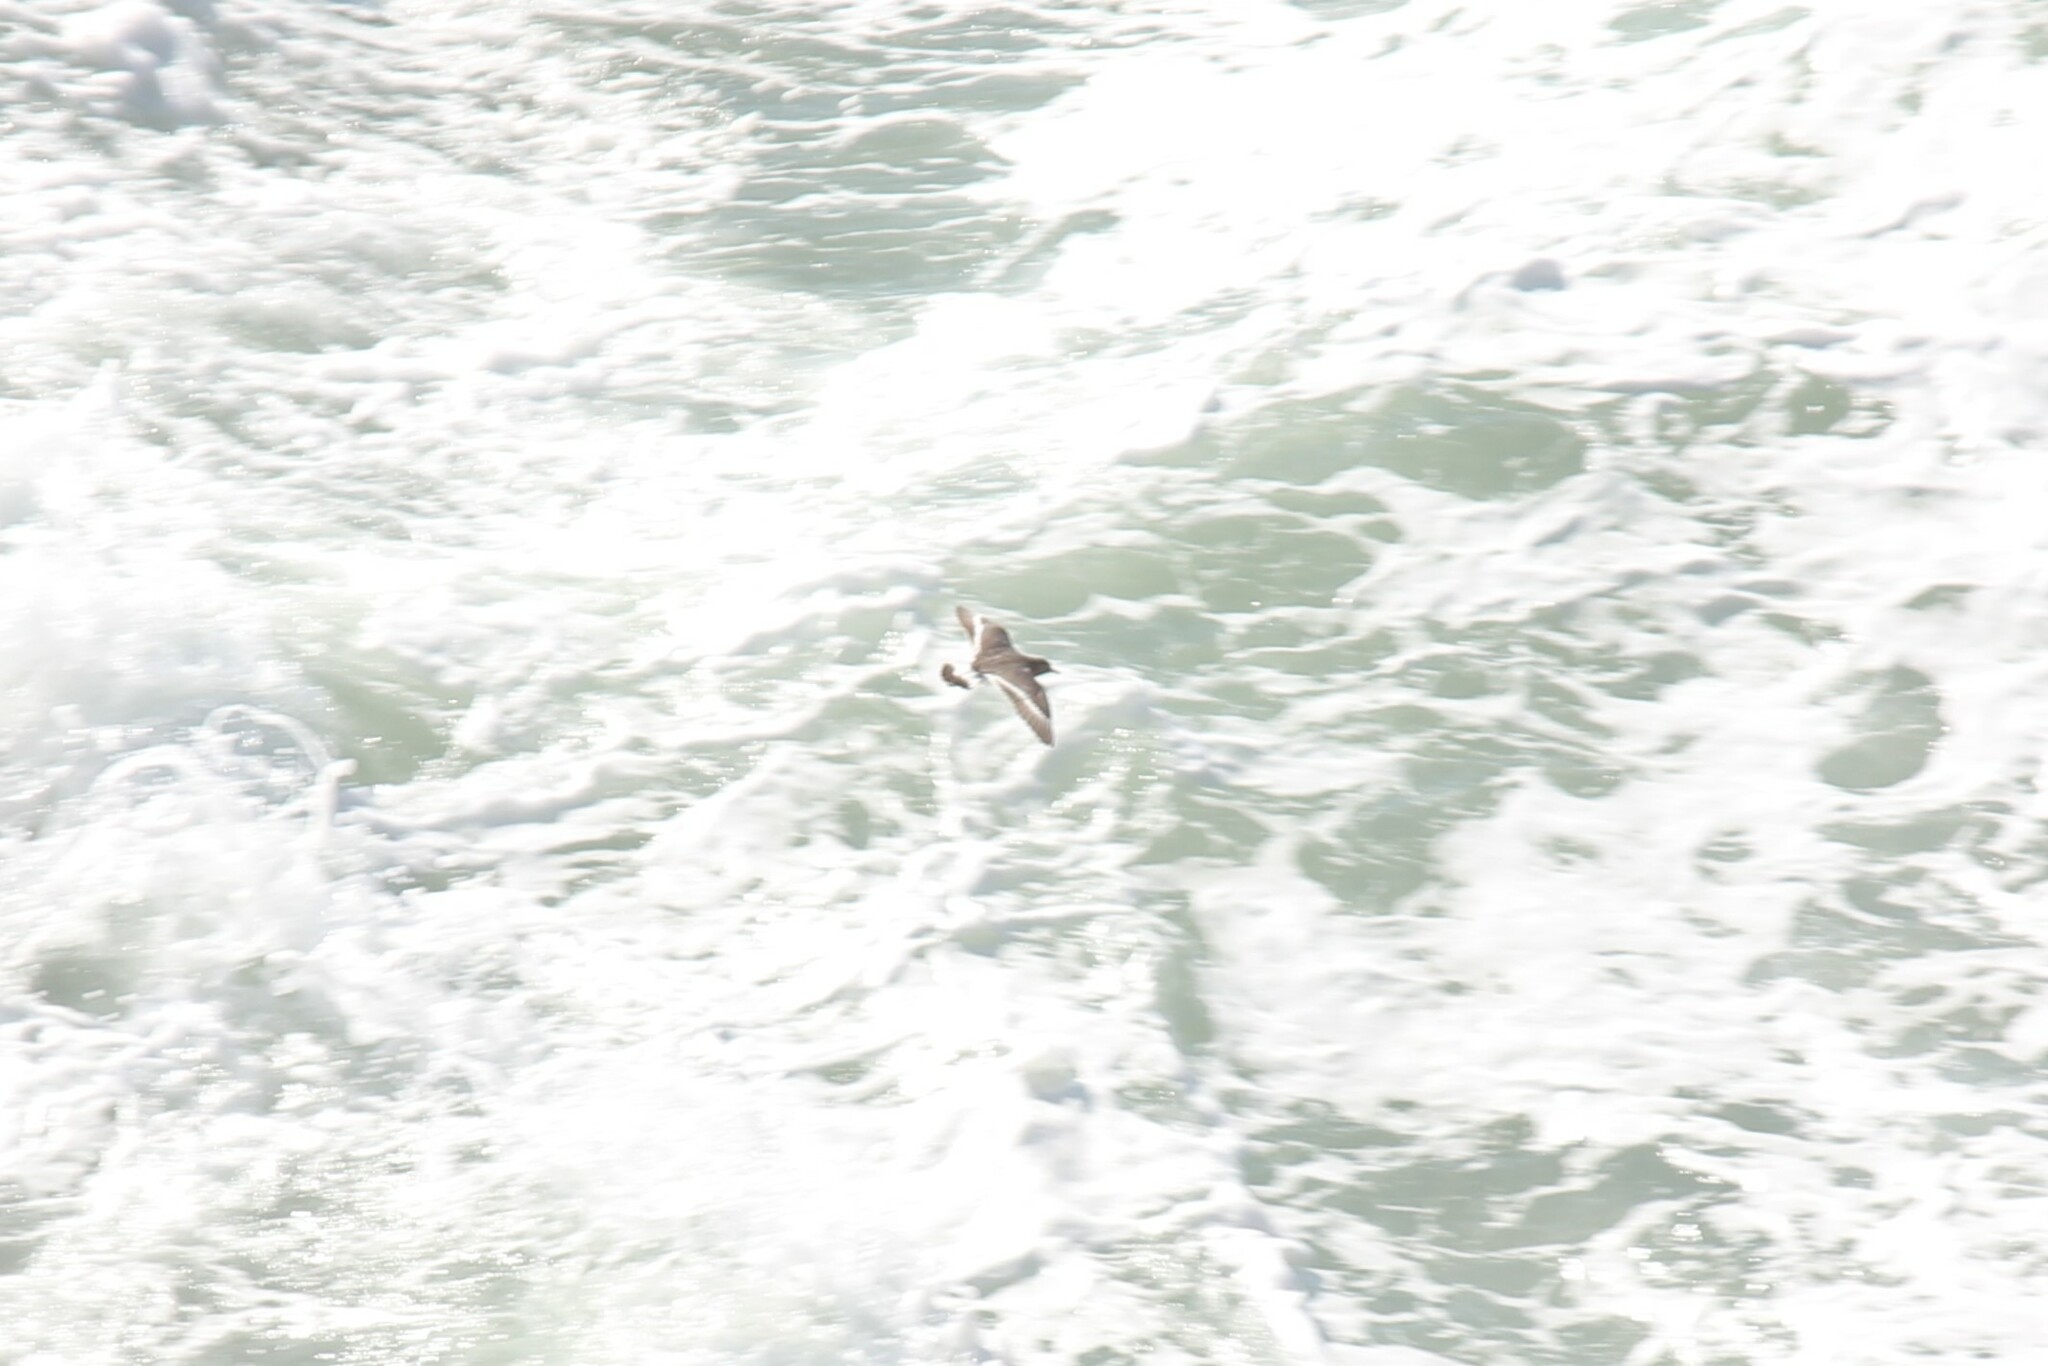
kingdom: Animalia
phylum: Chordata
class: Aves
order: Charadriiformes
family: Scolopacidae
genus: Calidris
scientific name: Calidris virgata
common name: Surfbird
